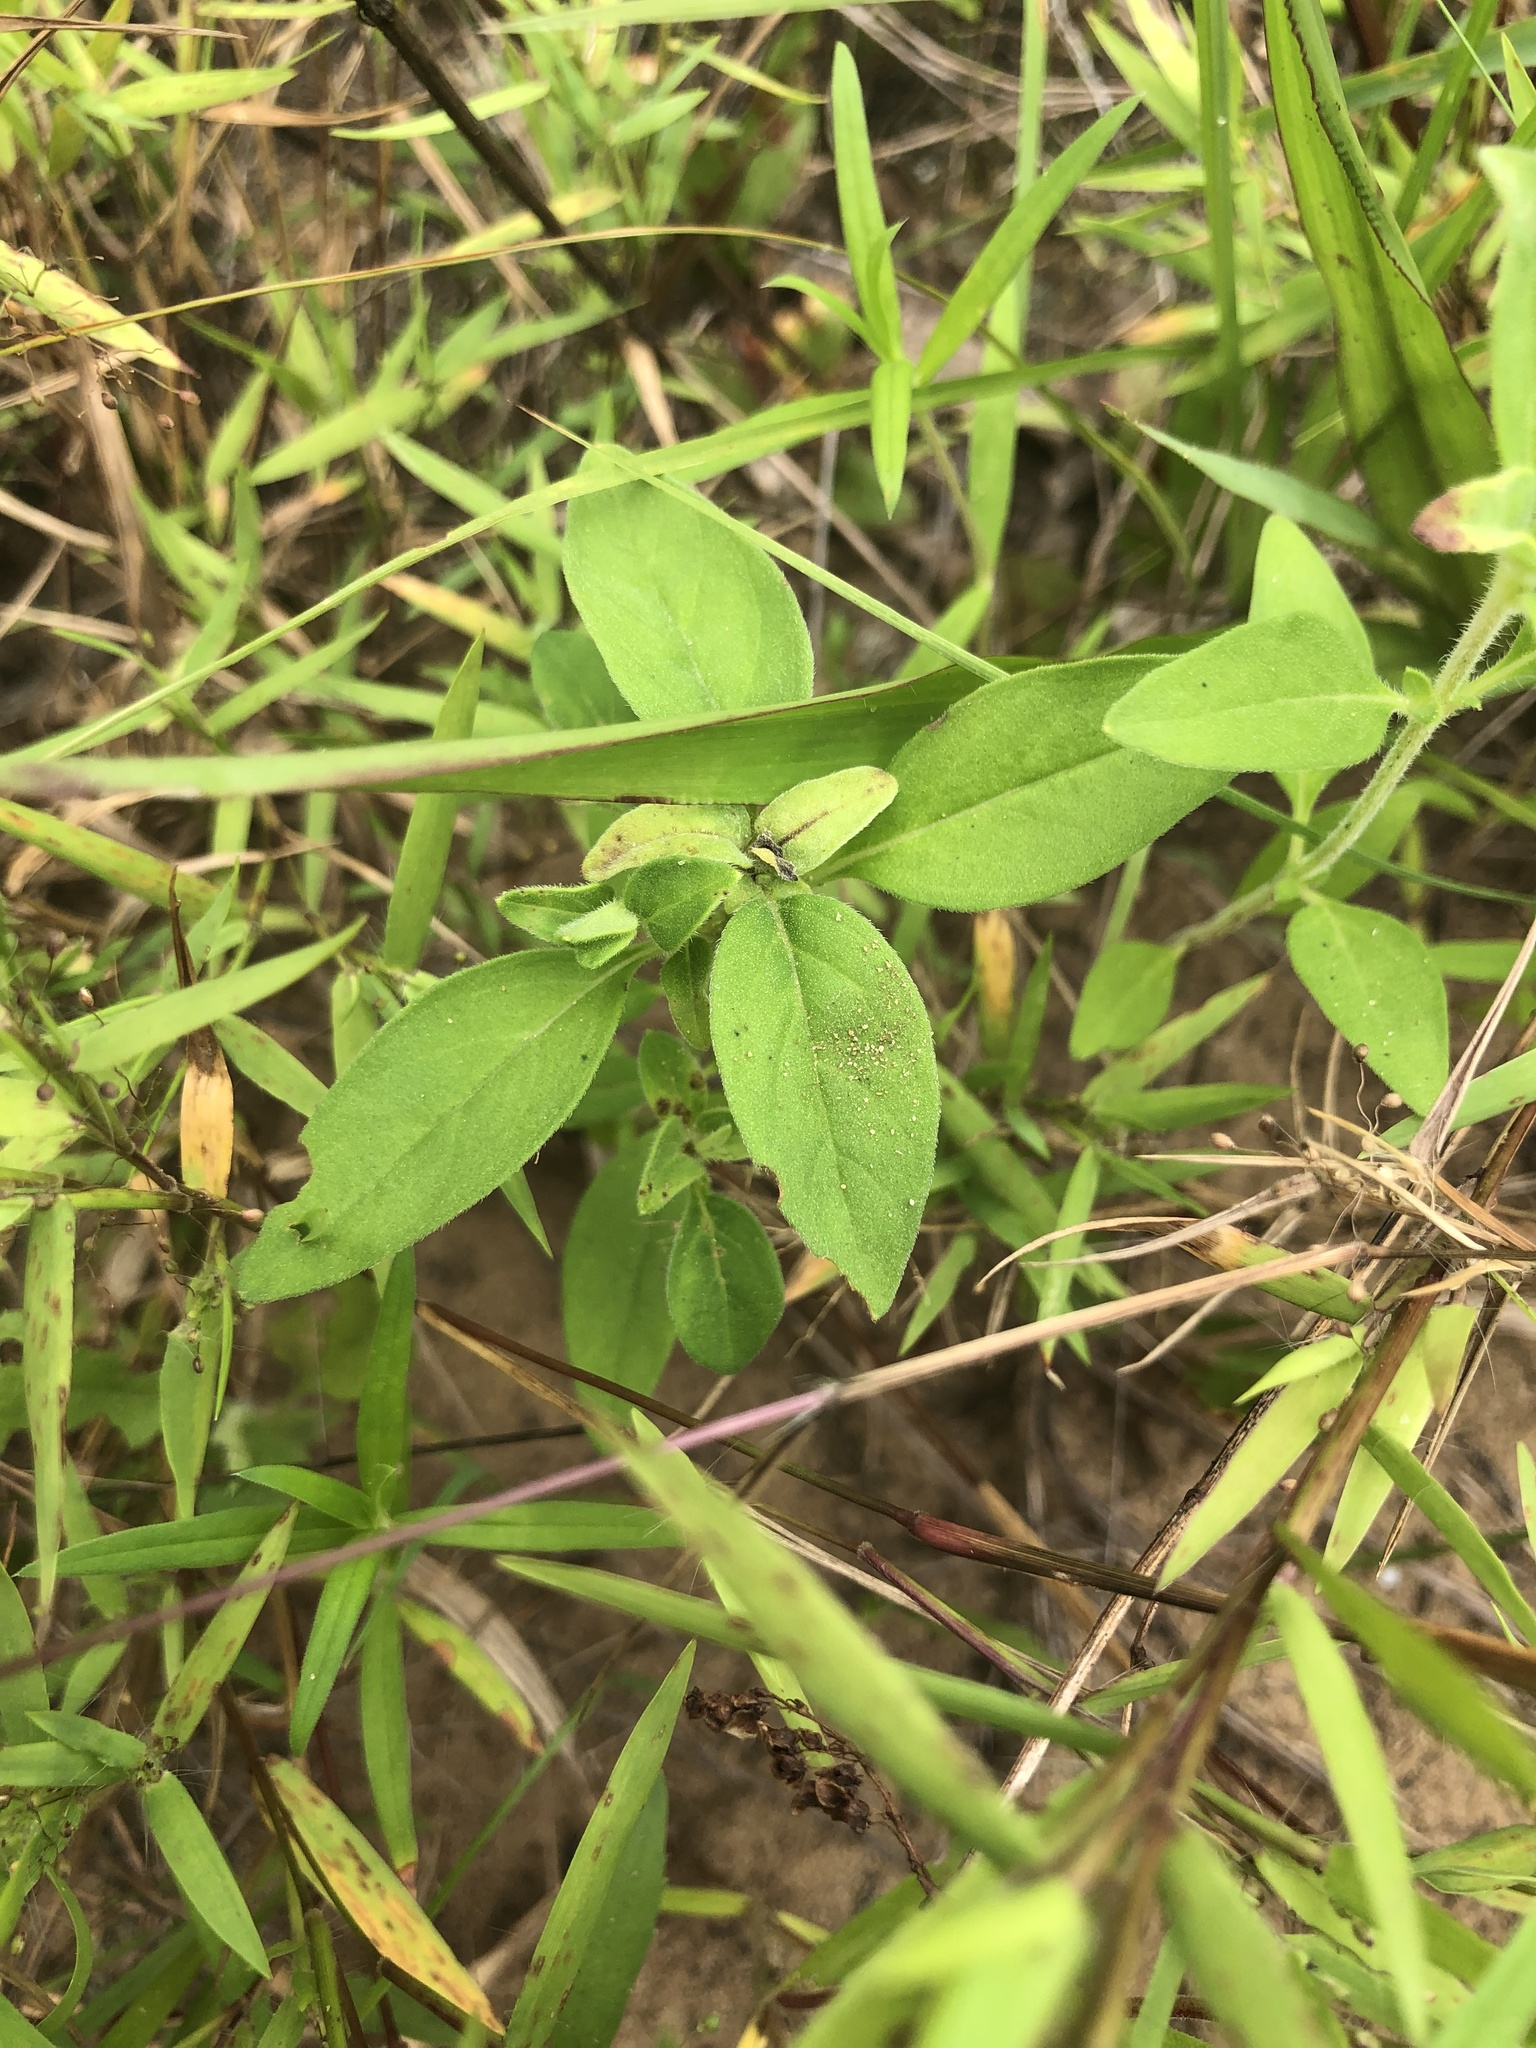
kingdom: Plantae
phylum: Tracheophyta
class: Magnoliopsida
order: Lamiales
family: Lamiaceae
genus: Trichostema
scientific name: Trichostema dichotomum
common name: Bastard pennyroyal
